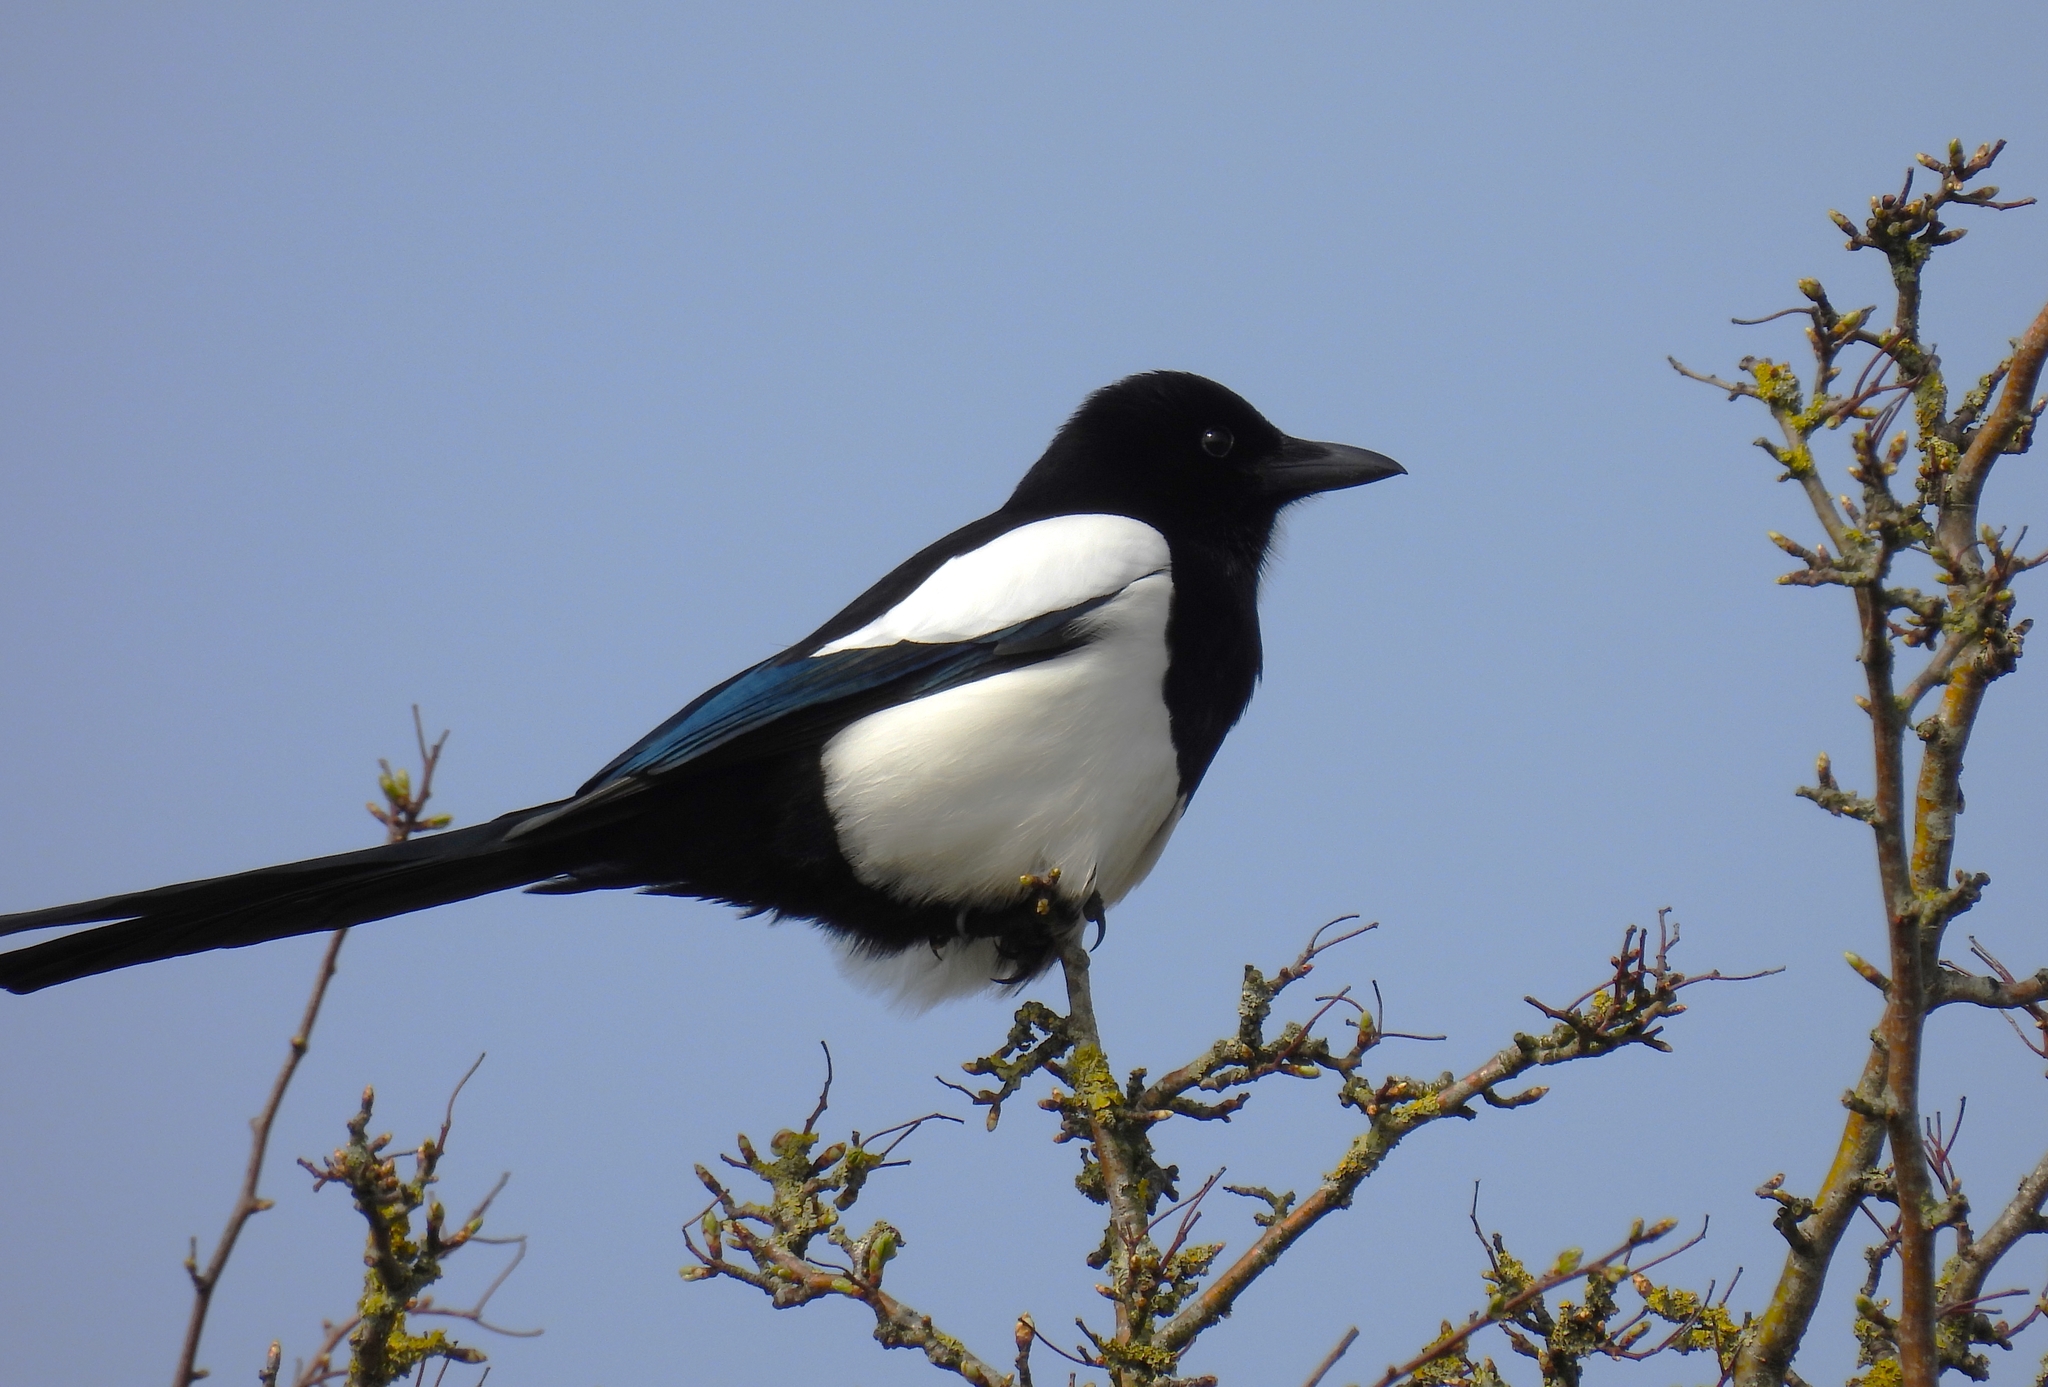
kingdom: Animalia
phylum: Chordata
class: Aves
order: Passeriformes
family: Corvidae
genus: Pica
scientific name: Pica pica
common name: Eurasian magpie
